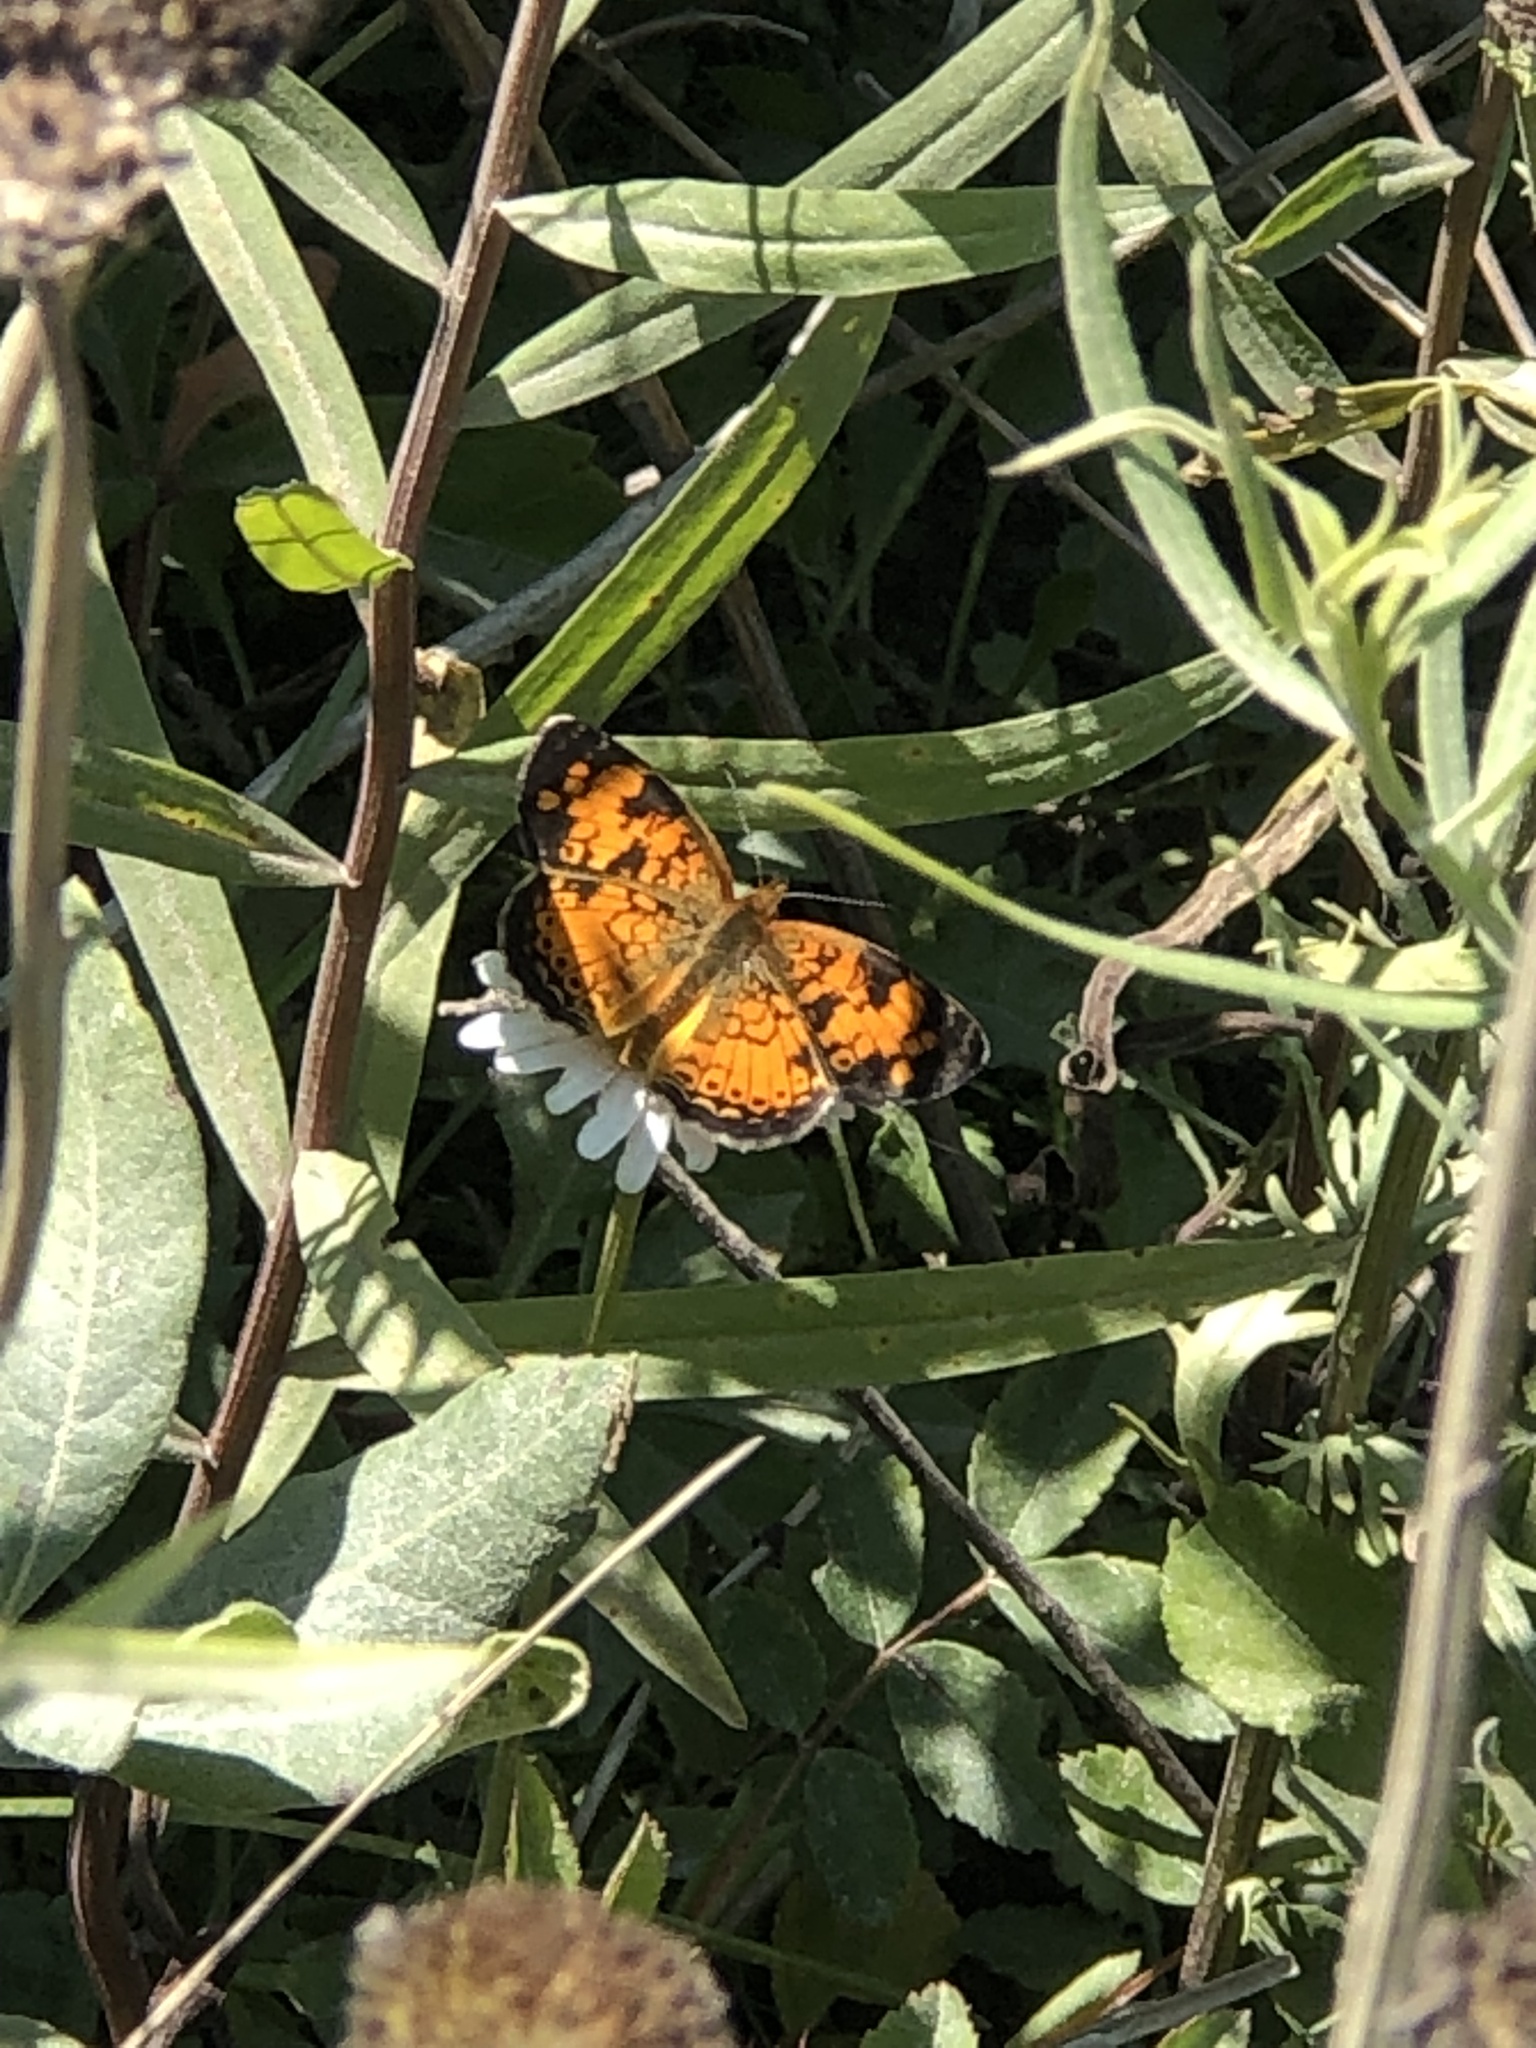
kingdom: Animalia
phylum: Arthropoda
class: Insecta
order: Lepidoptera
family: Nymphalidae
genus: Phyciodes
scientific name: Phyciodes tharos
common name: Pearl crescent
